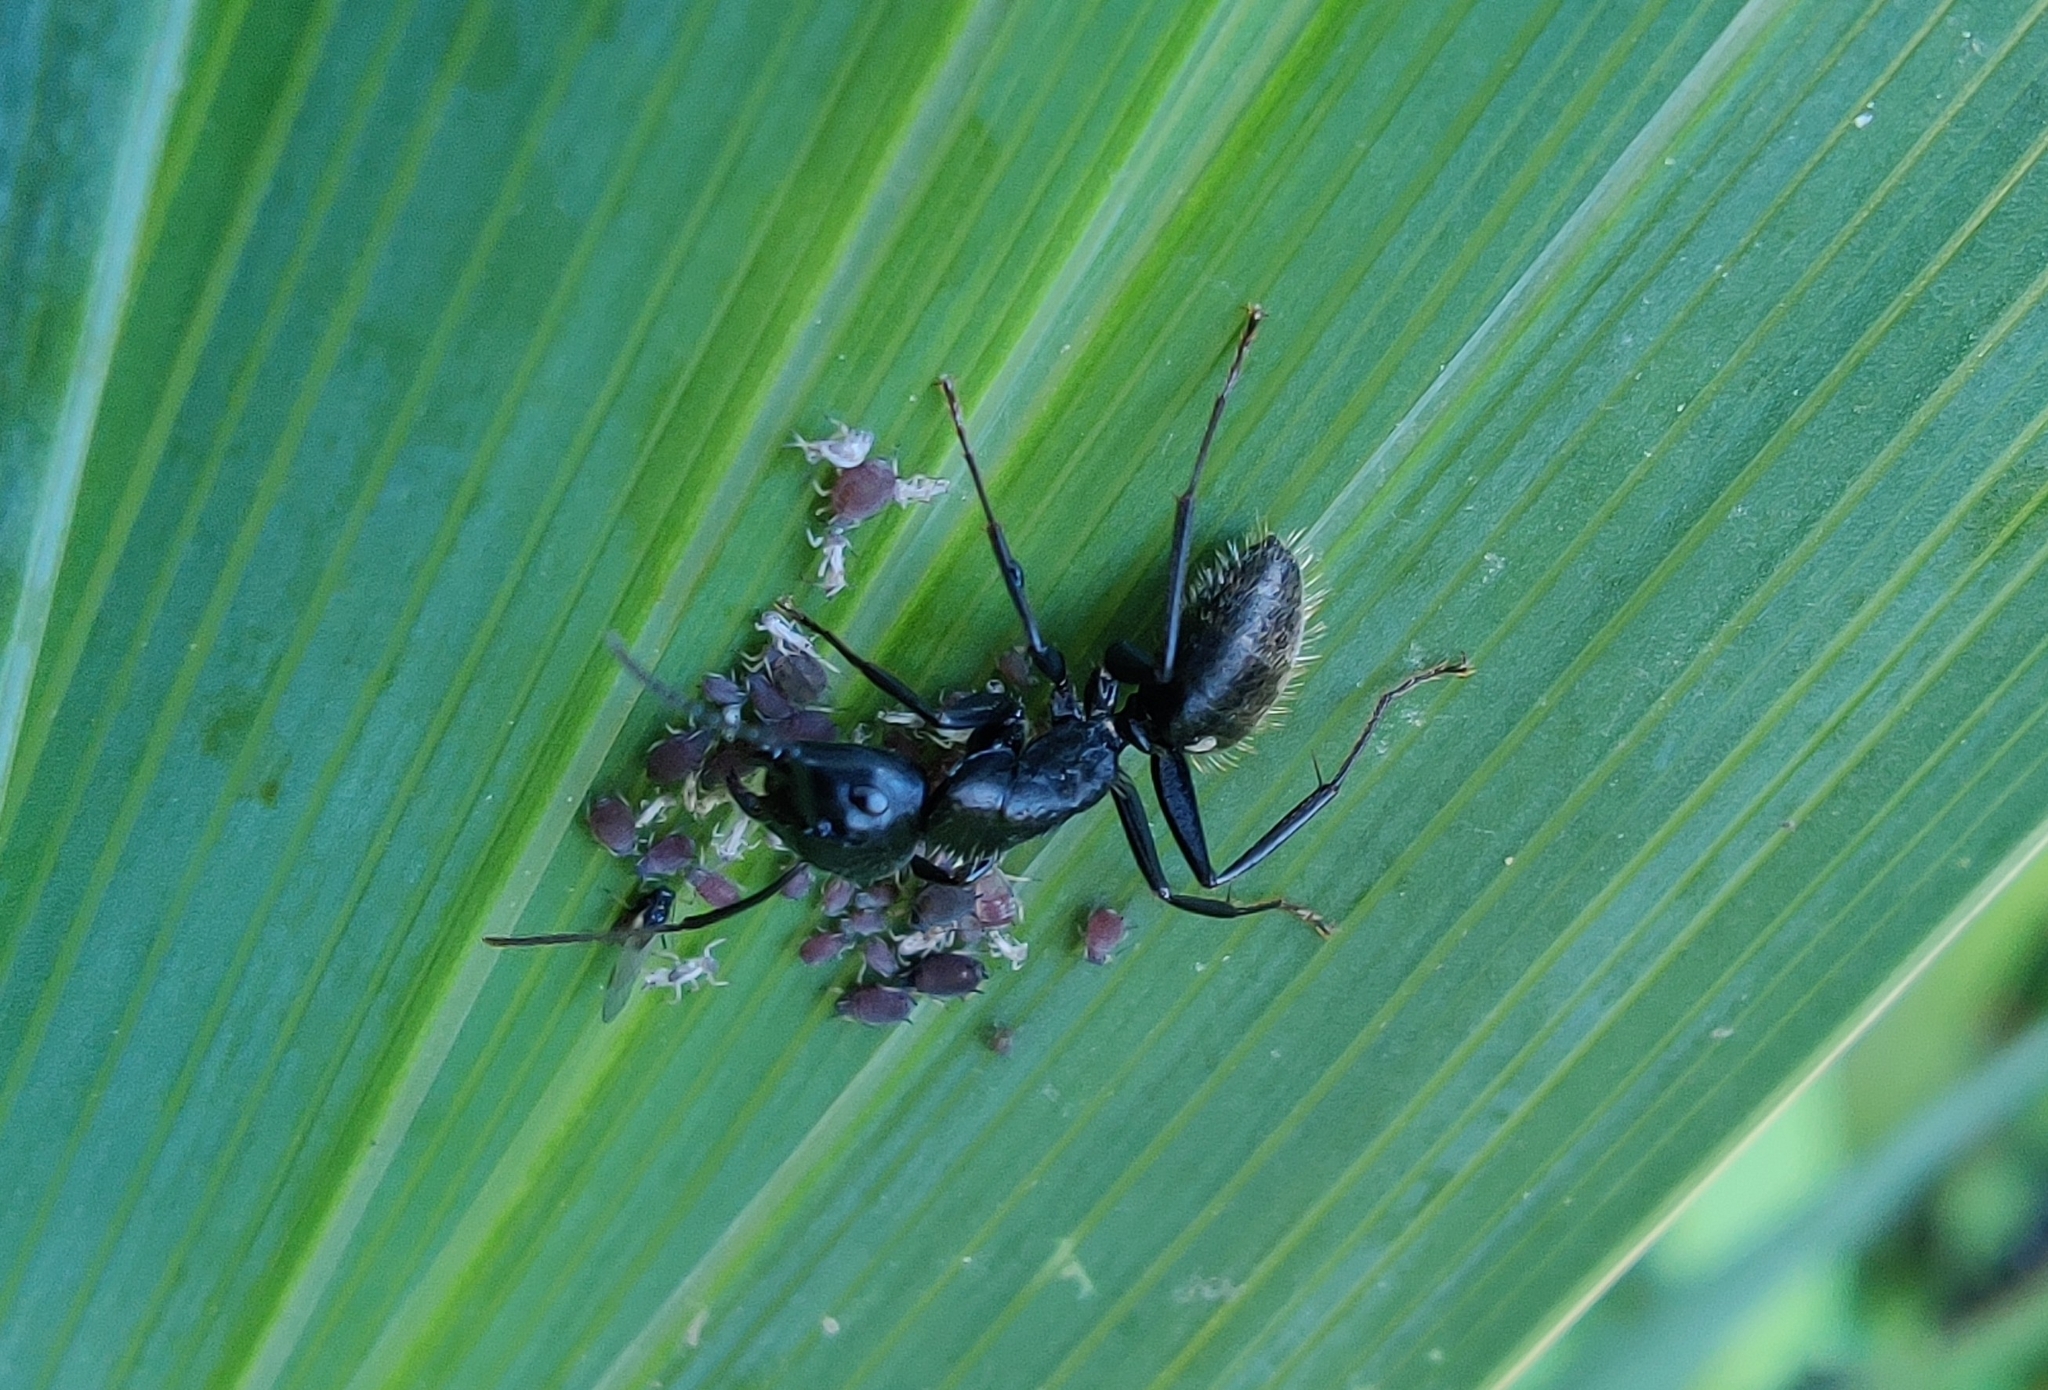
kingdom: Animalia
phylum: Arthropoda
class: Insecta
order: Hymenoptera
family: Formicidae
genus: Camponotus
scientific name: Camponotus vagus
